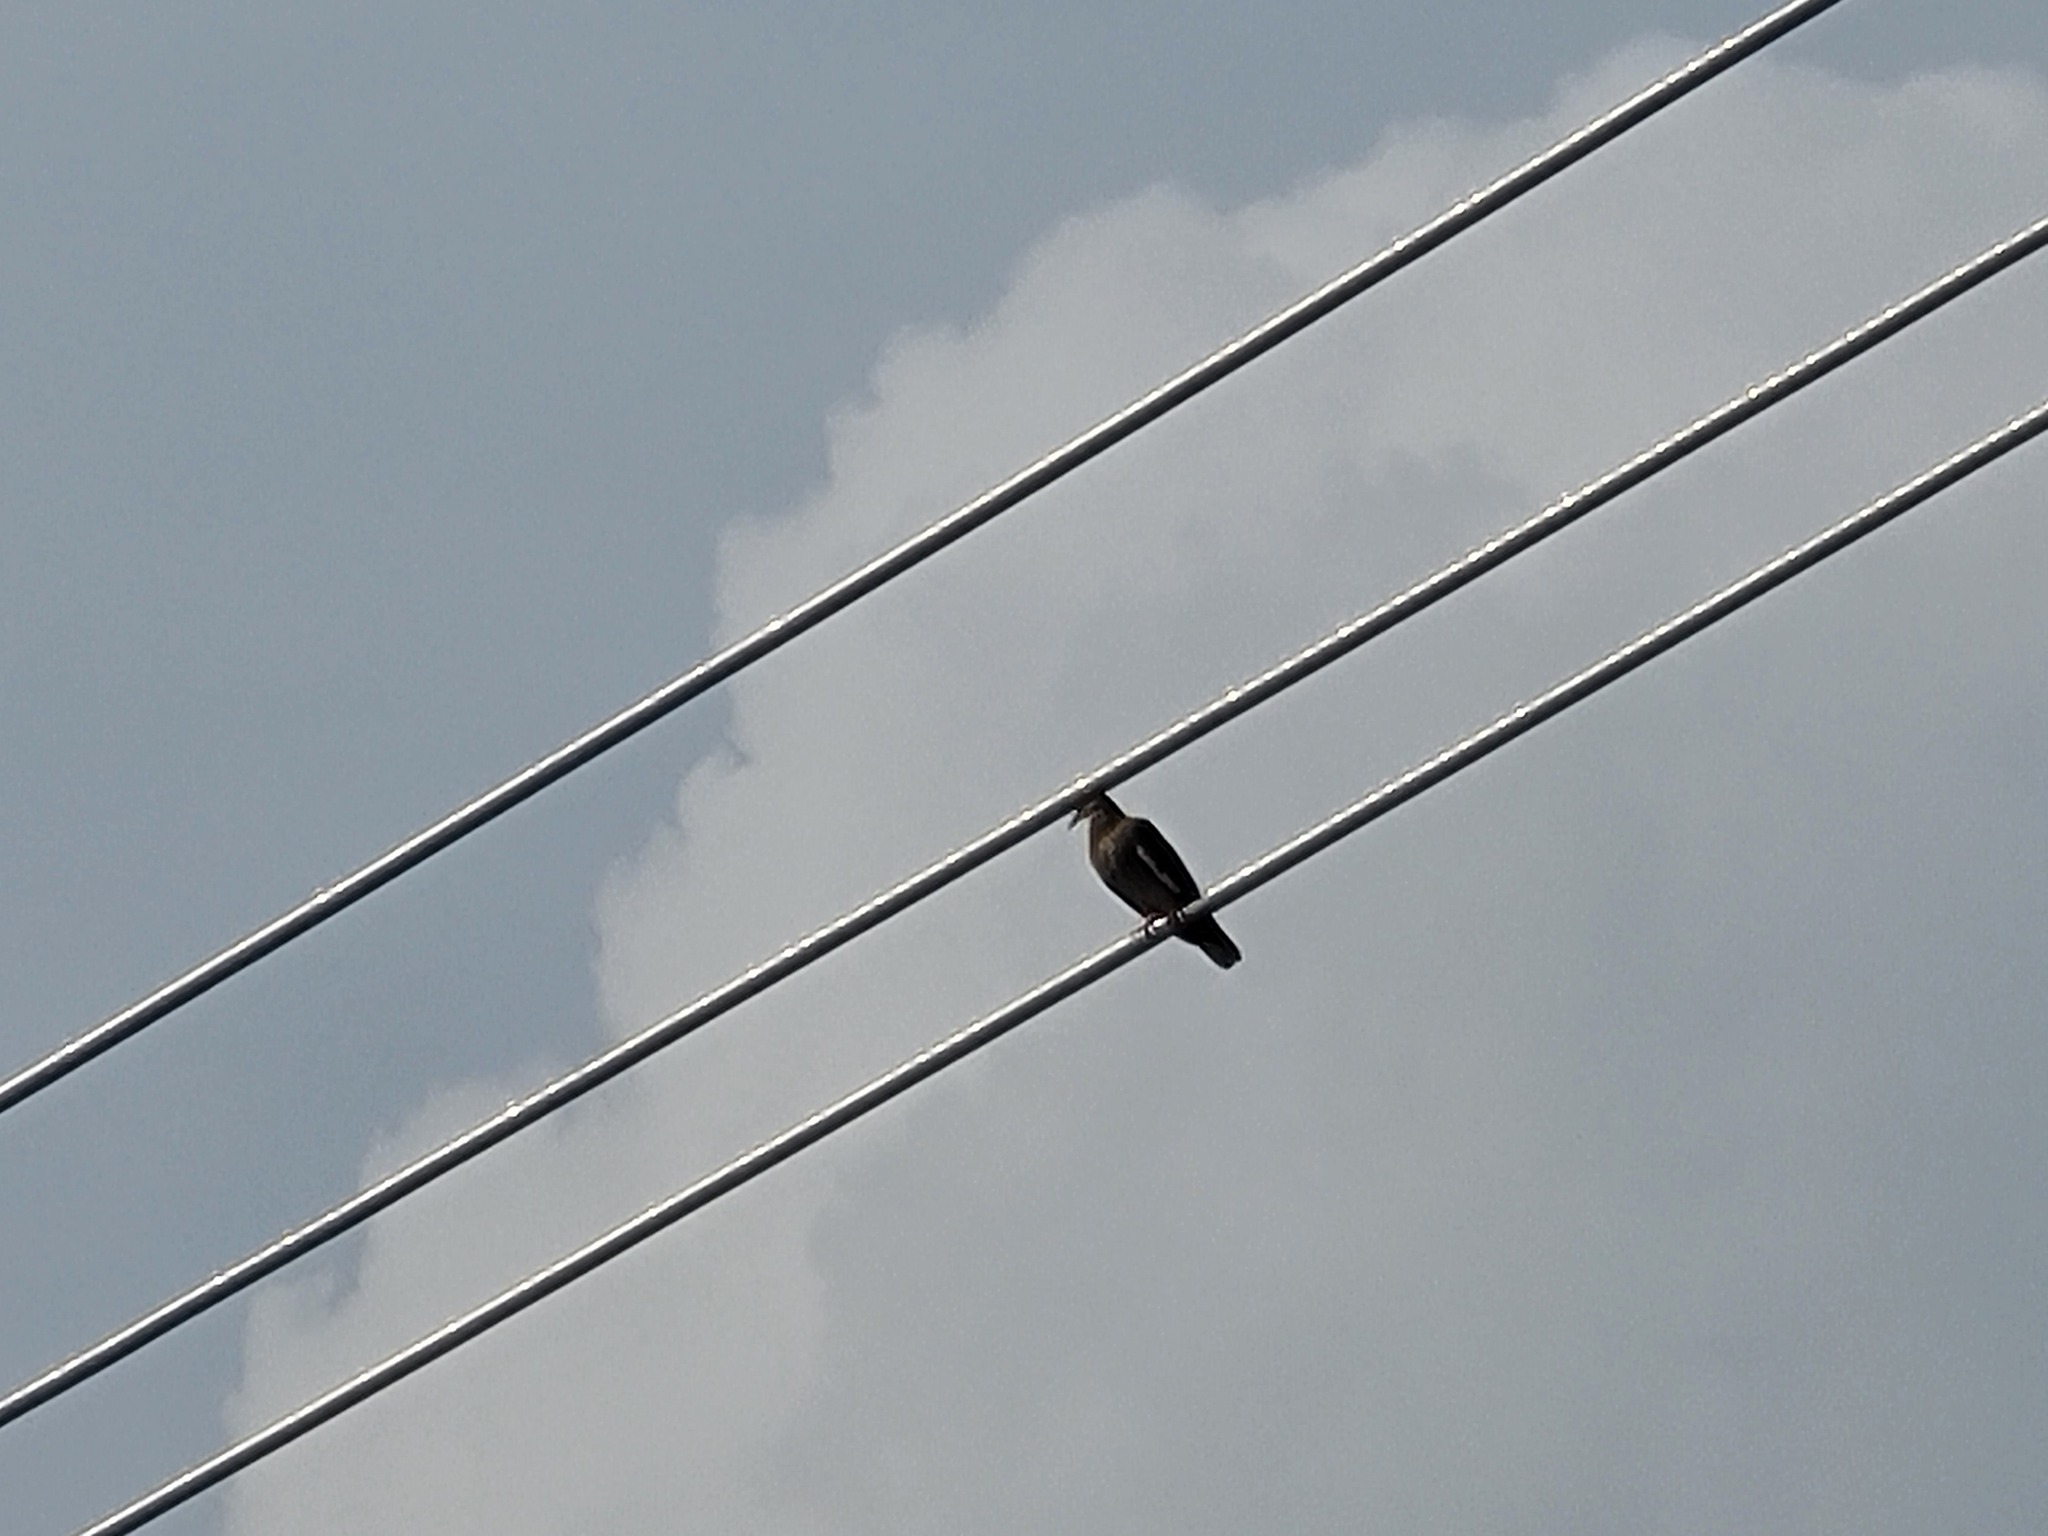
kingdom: Animalia
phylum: Chordata
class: Aves
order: Columbiformes
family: Columbidae
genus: Zenaida
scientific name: Zenaida asiatica
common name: White-winged dove
